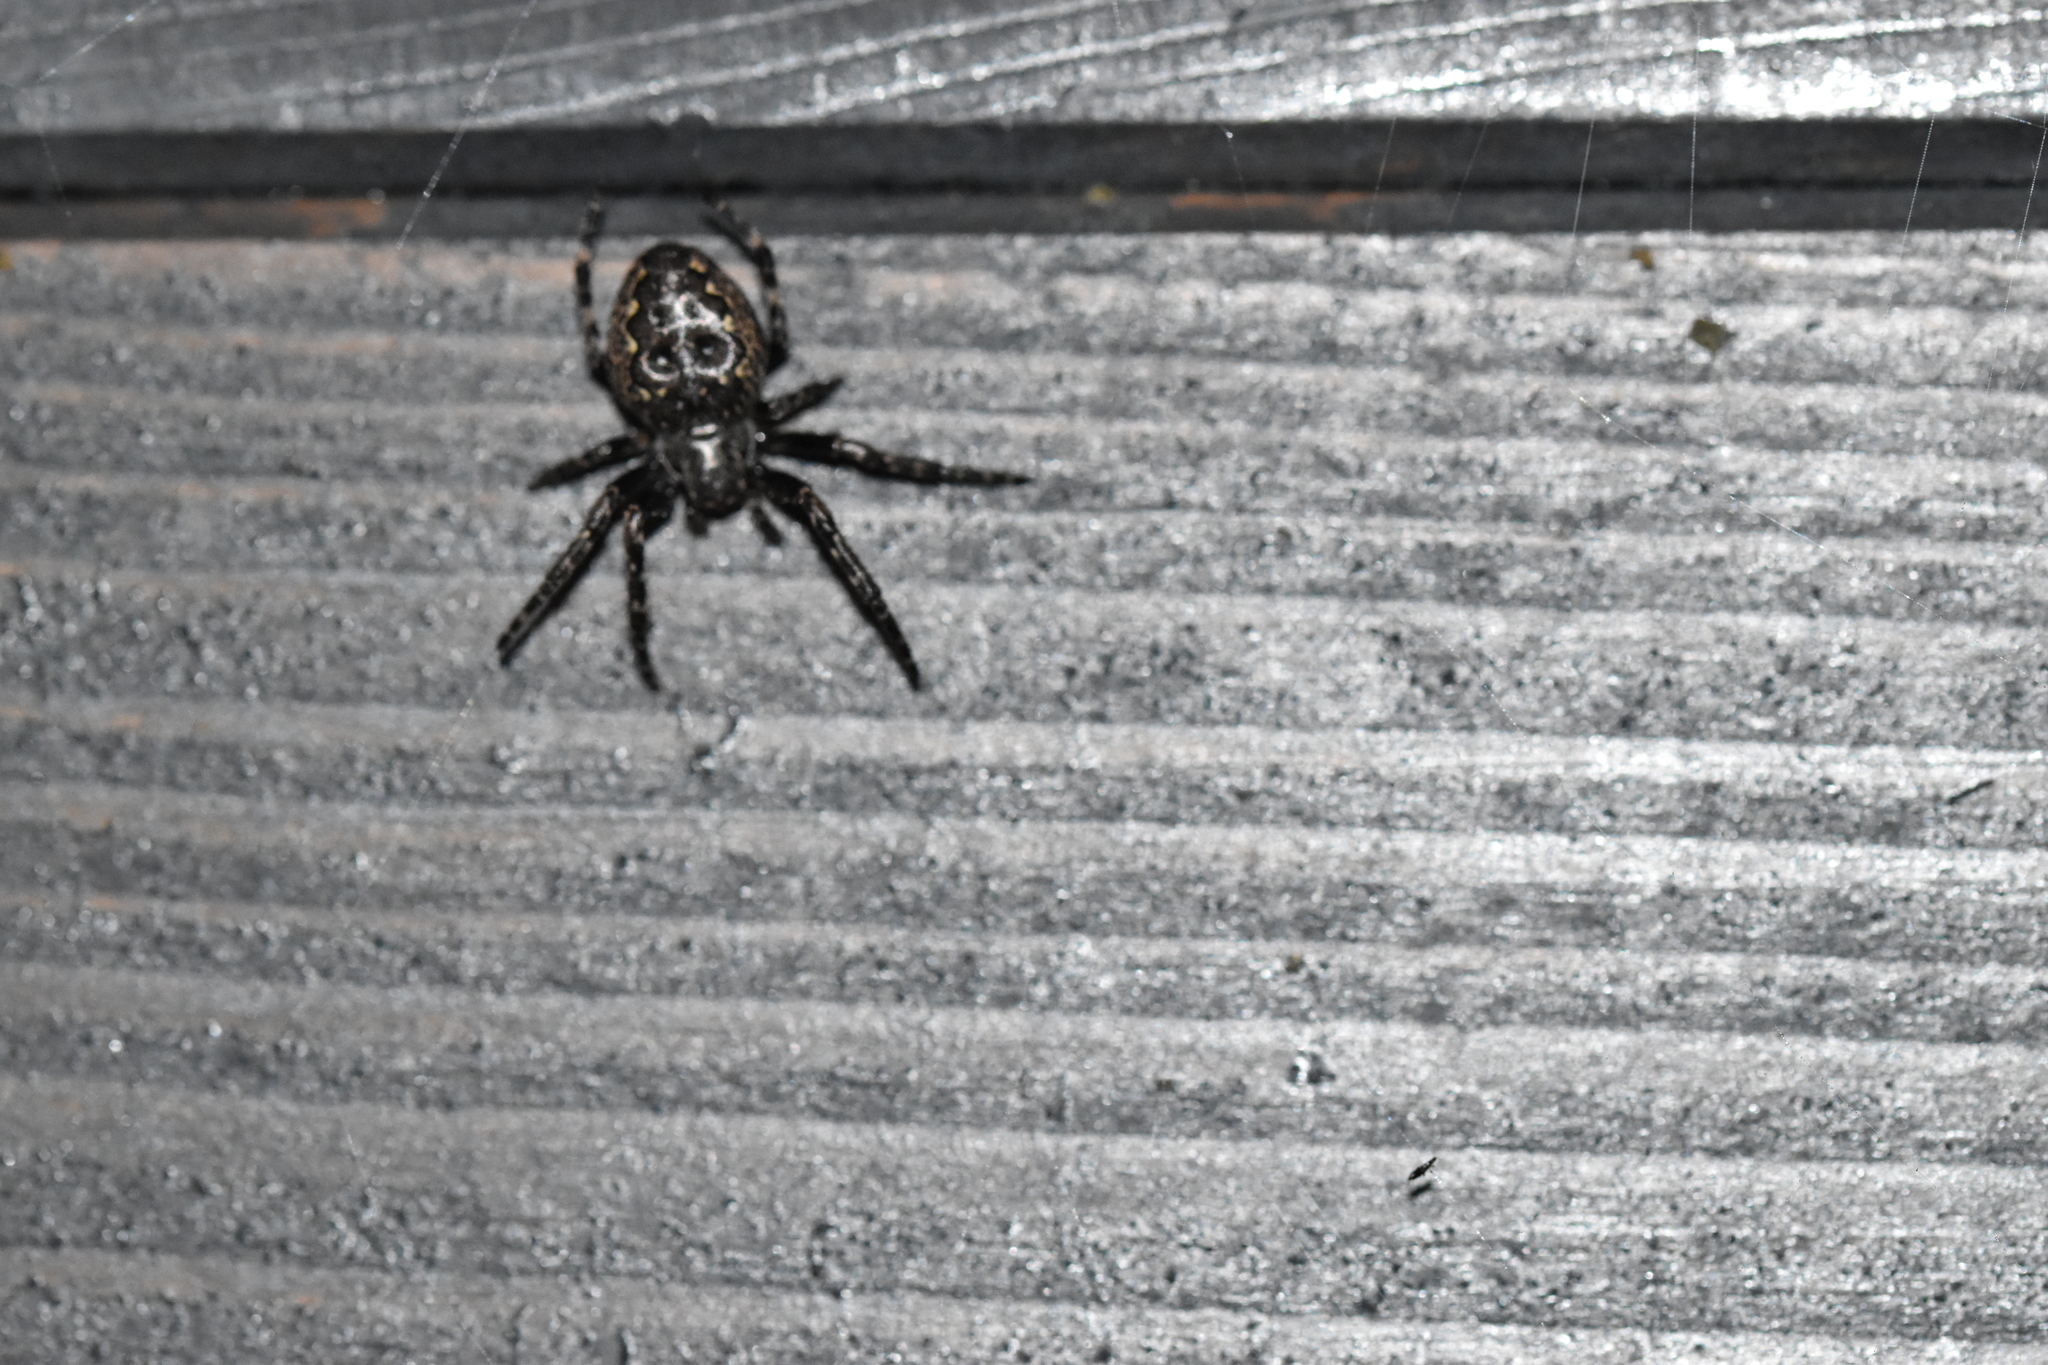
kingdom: Animalia
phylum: Arthropoda
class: Arachnida
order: Araneae
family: Araneidae
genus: Nuctenea
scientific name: Nuctenea umbratica
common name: Toad spider
